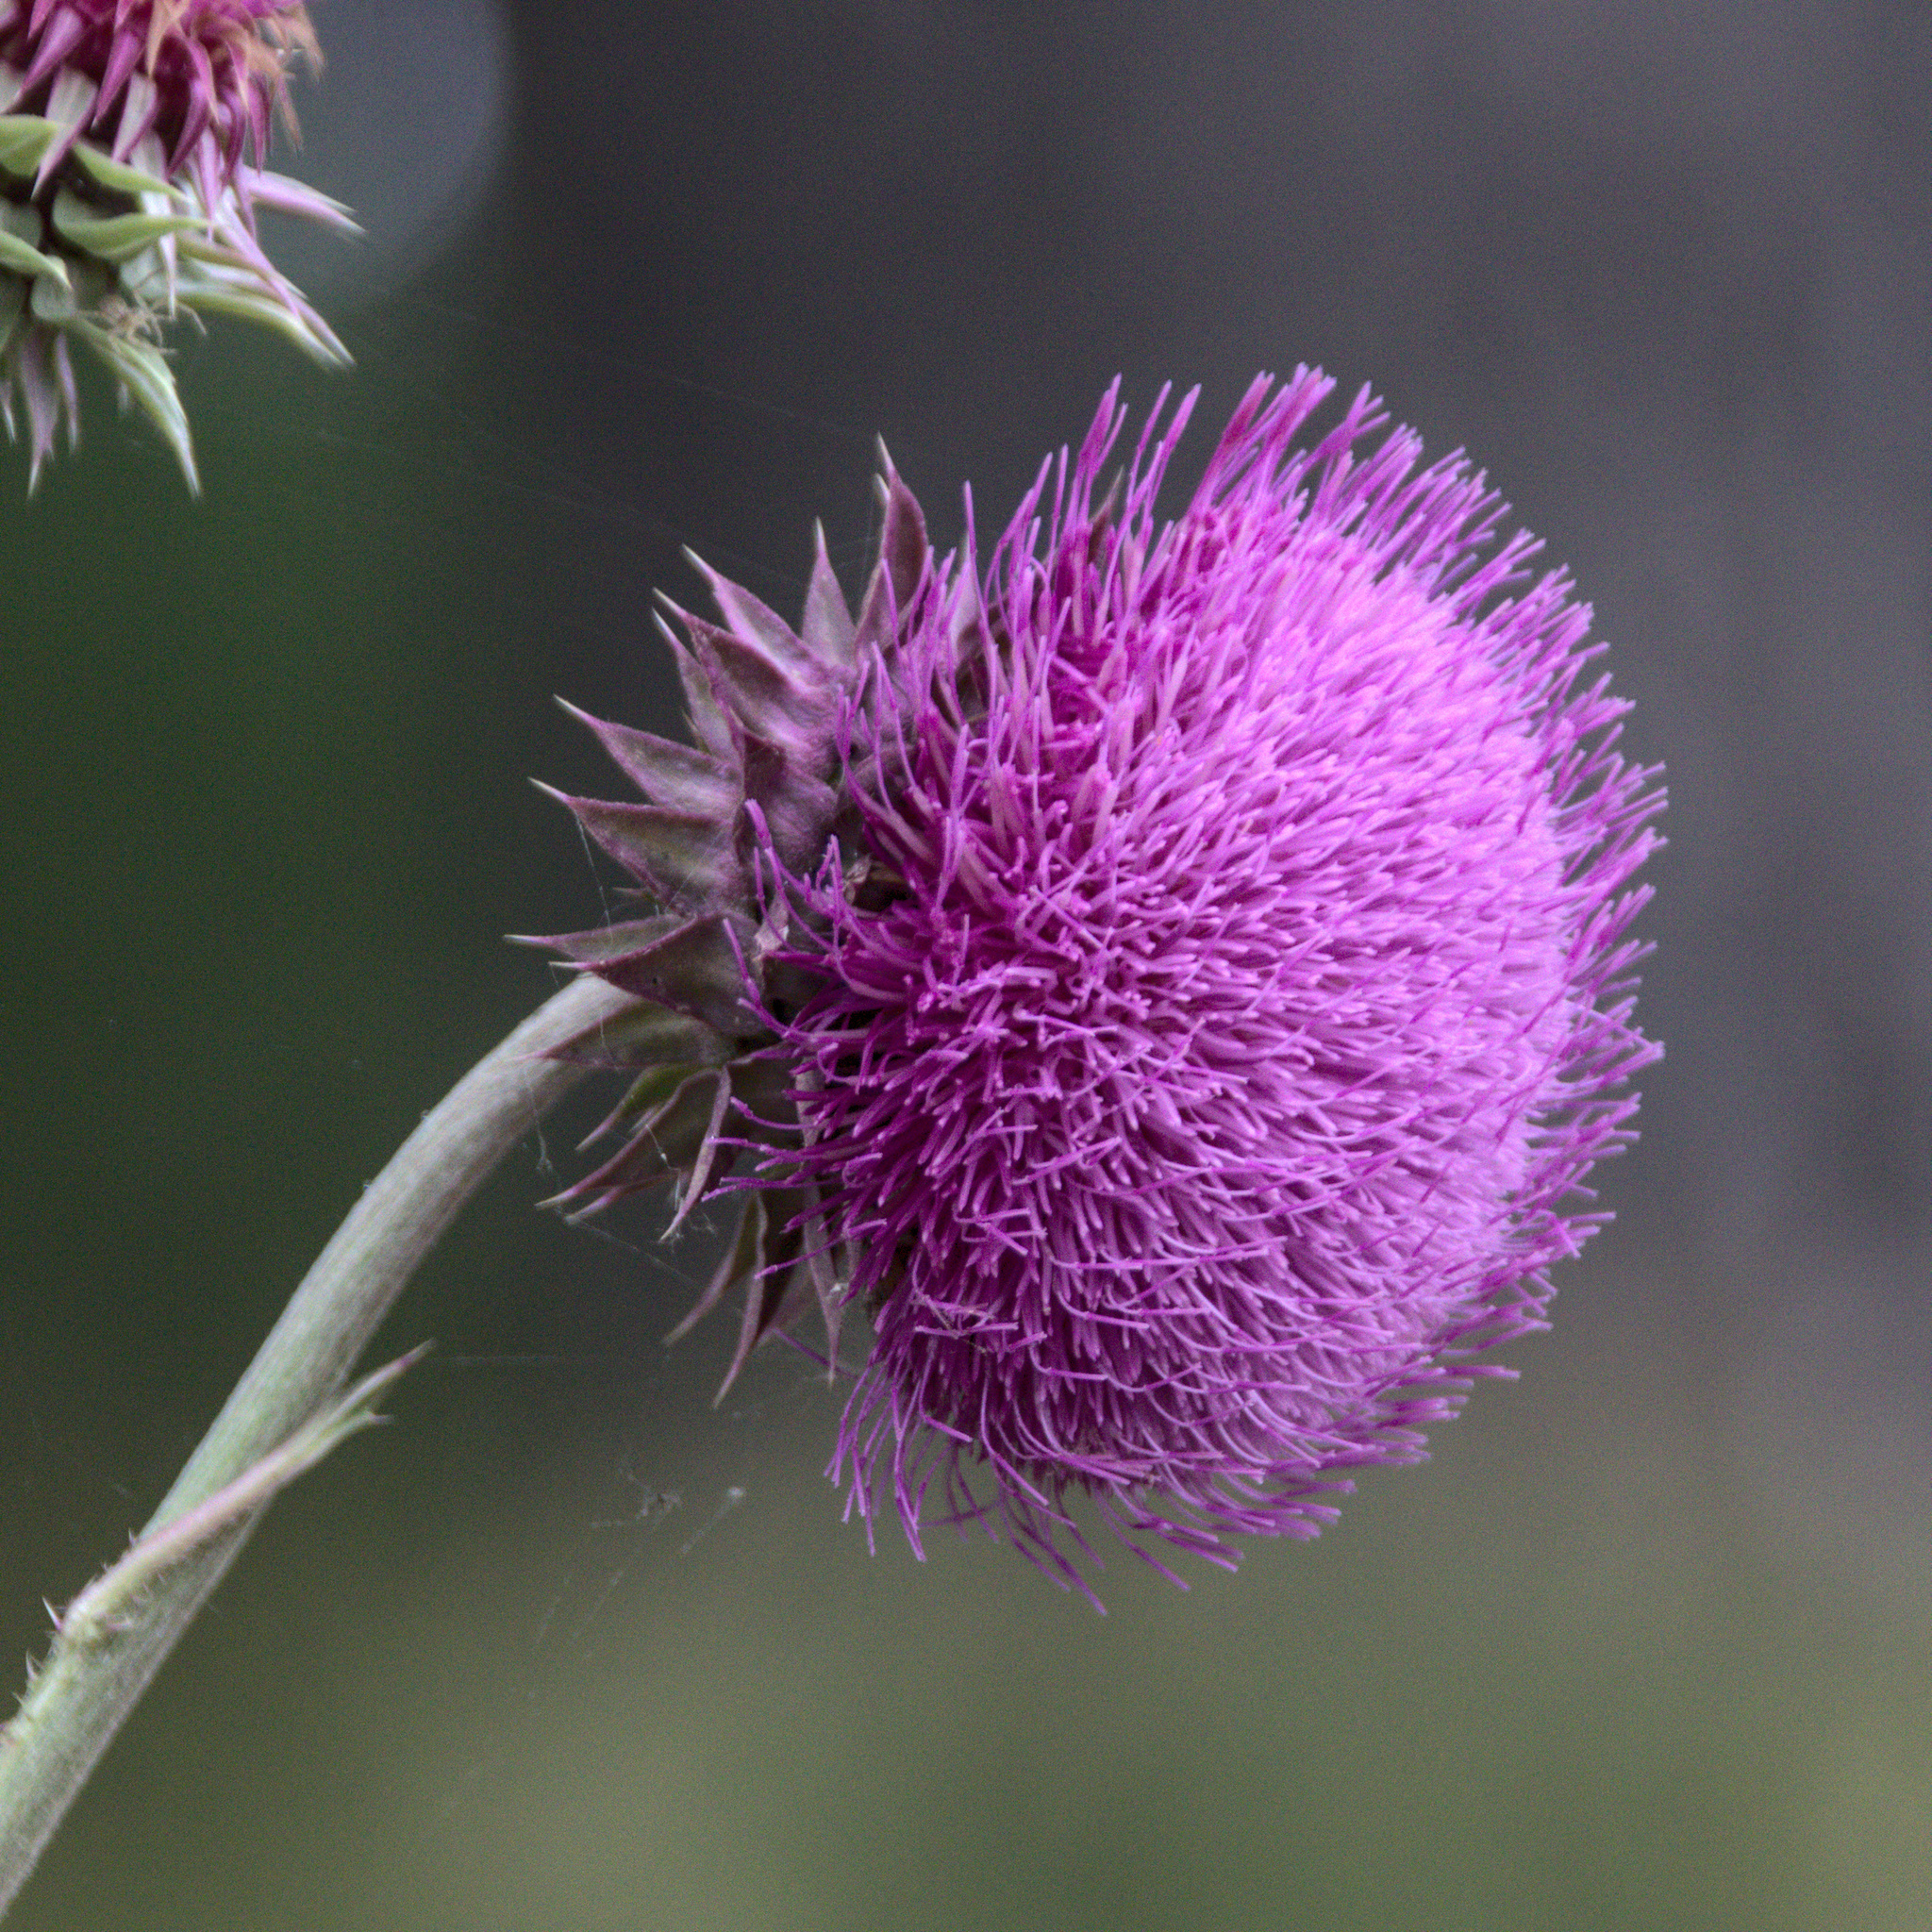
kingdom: Plantae
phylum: Tracheophyta
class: Magnoliopsida
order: Asterales
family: Asteraceae
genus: Carduus
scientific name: Carduus nutans
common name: Musk thistle
